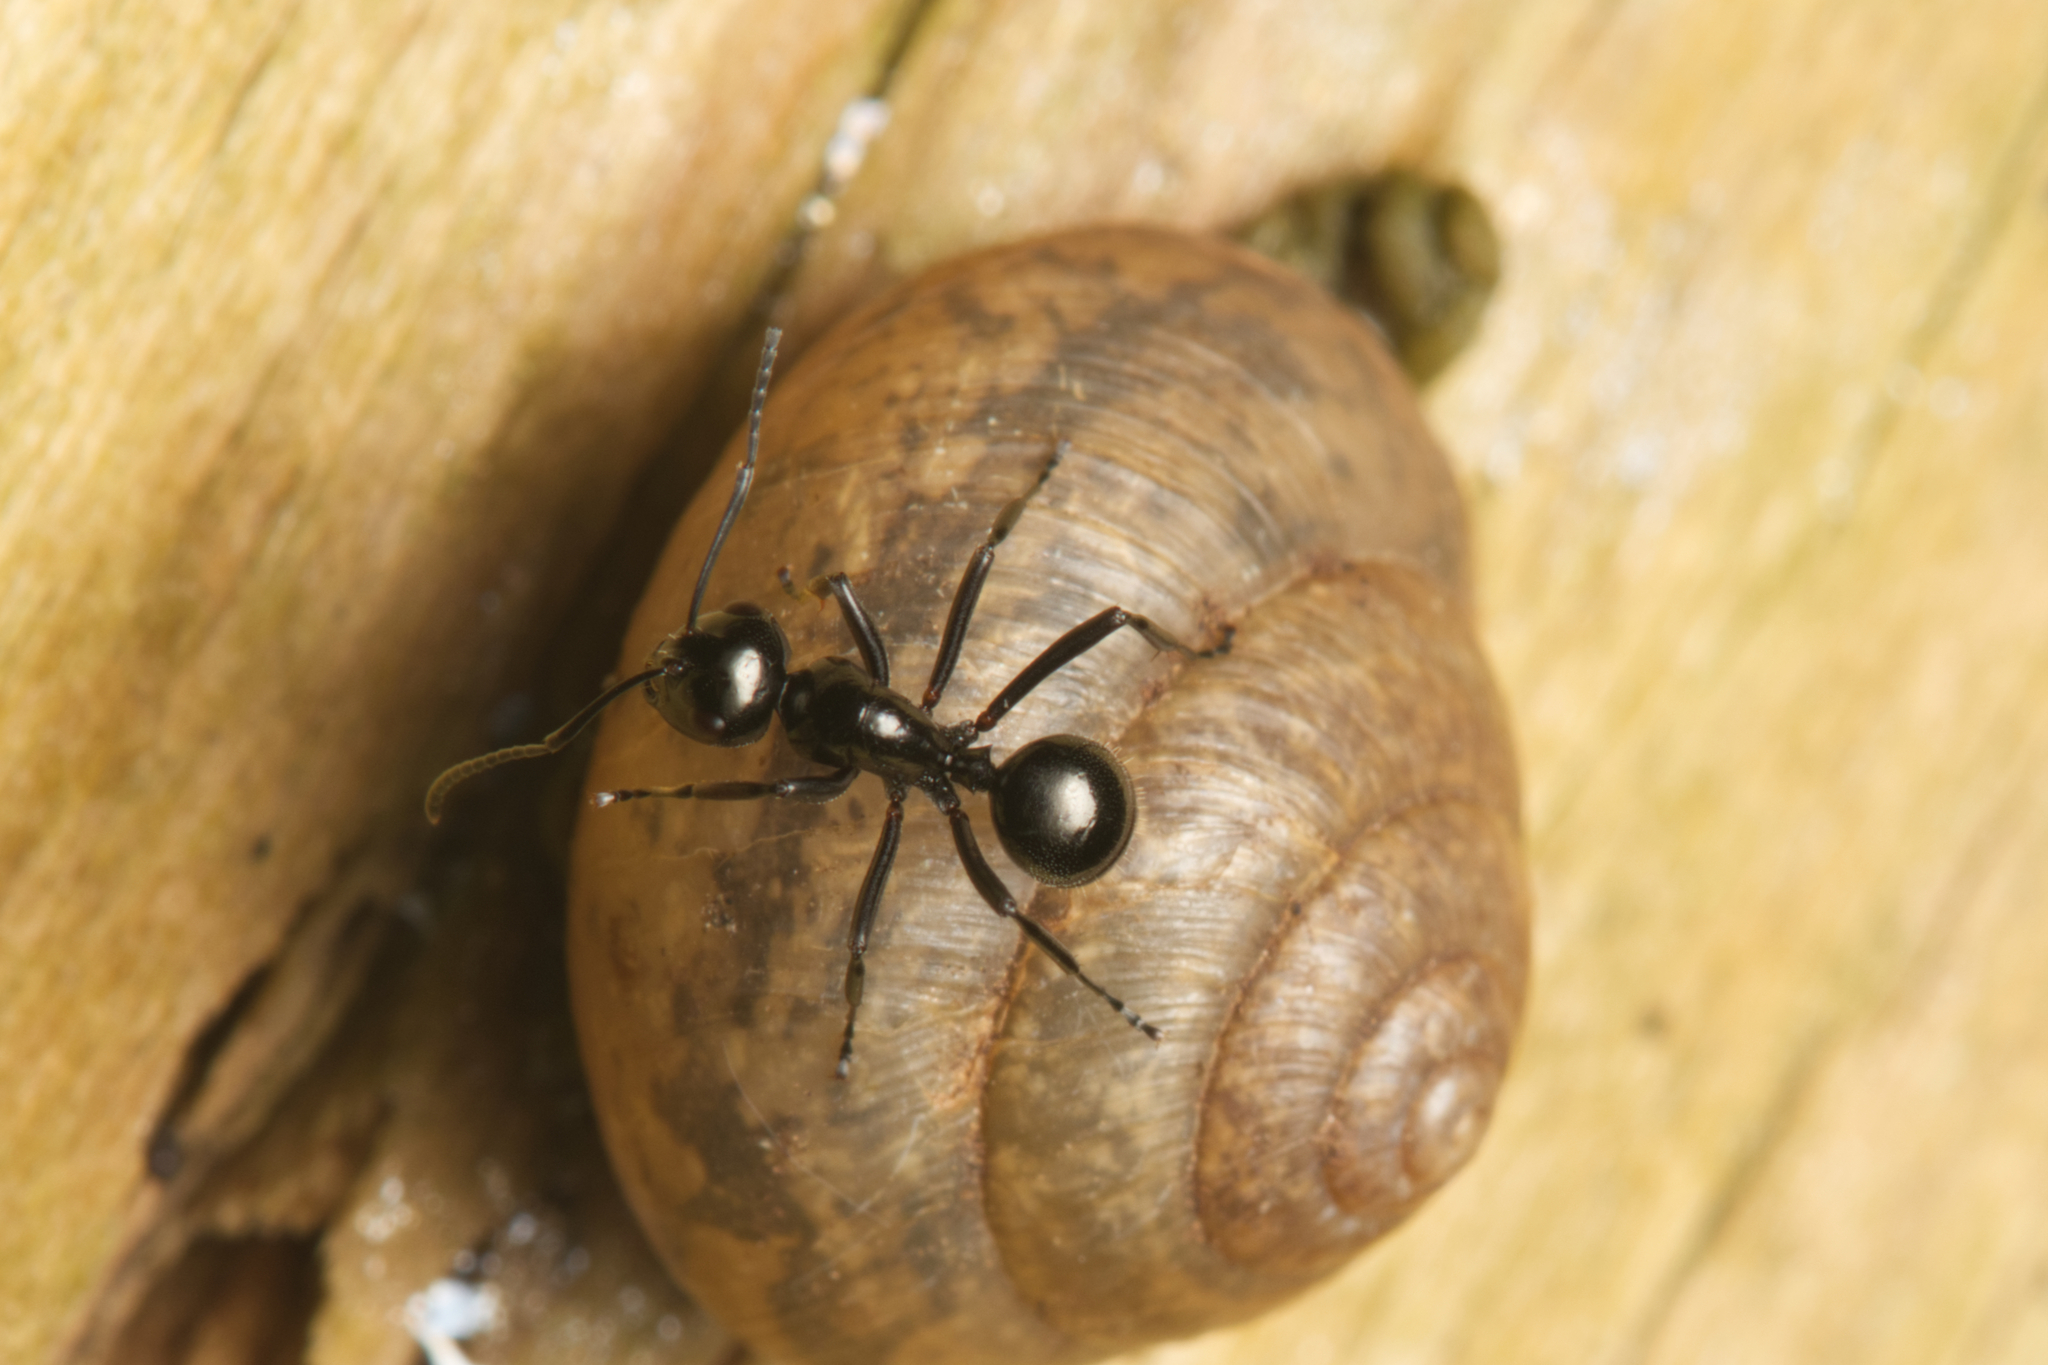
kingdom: Animalia
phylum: Arthropoda
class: Insecta
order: Hymenoptera
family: Formicidae
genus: Polyrhachis
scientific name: Polyrhachis pilosa
